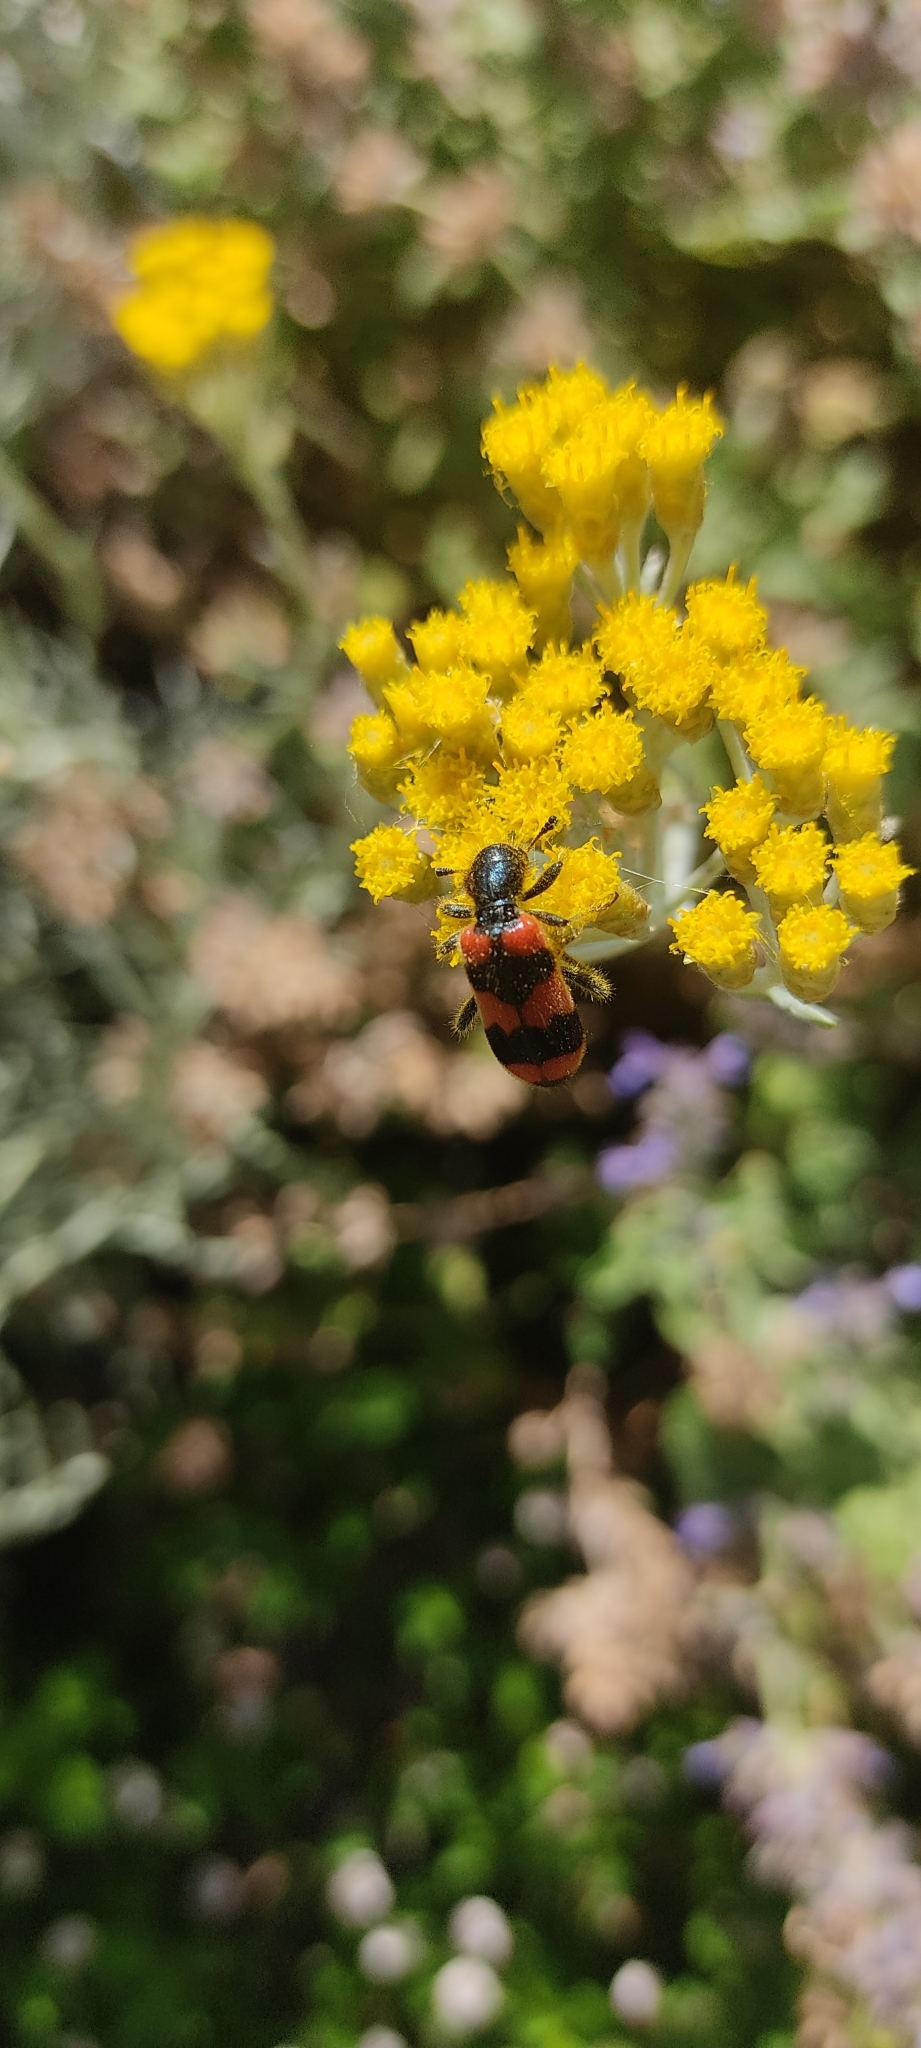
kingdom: Animalia
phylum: Arthropoda
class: Insecta
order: Coleoptera
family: Cleridae
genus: Trichodes
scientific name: Trichodes apiarius
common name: Bee-eating beetle
